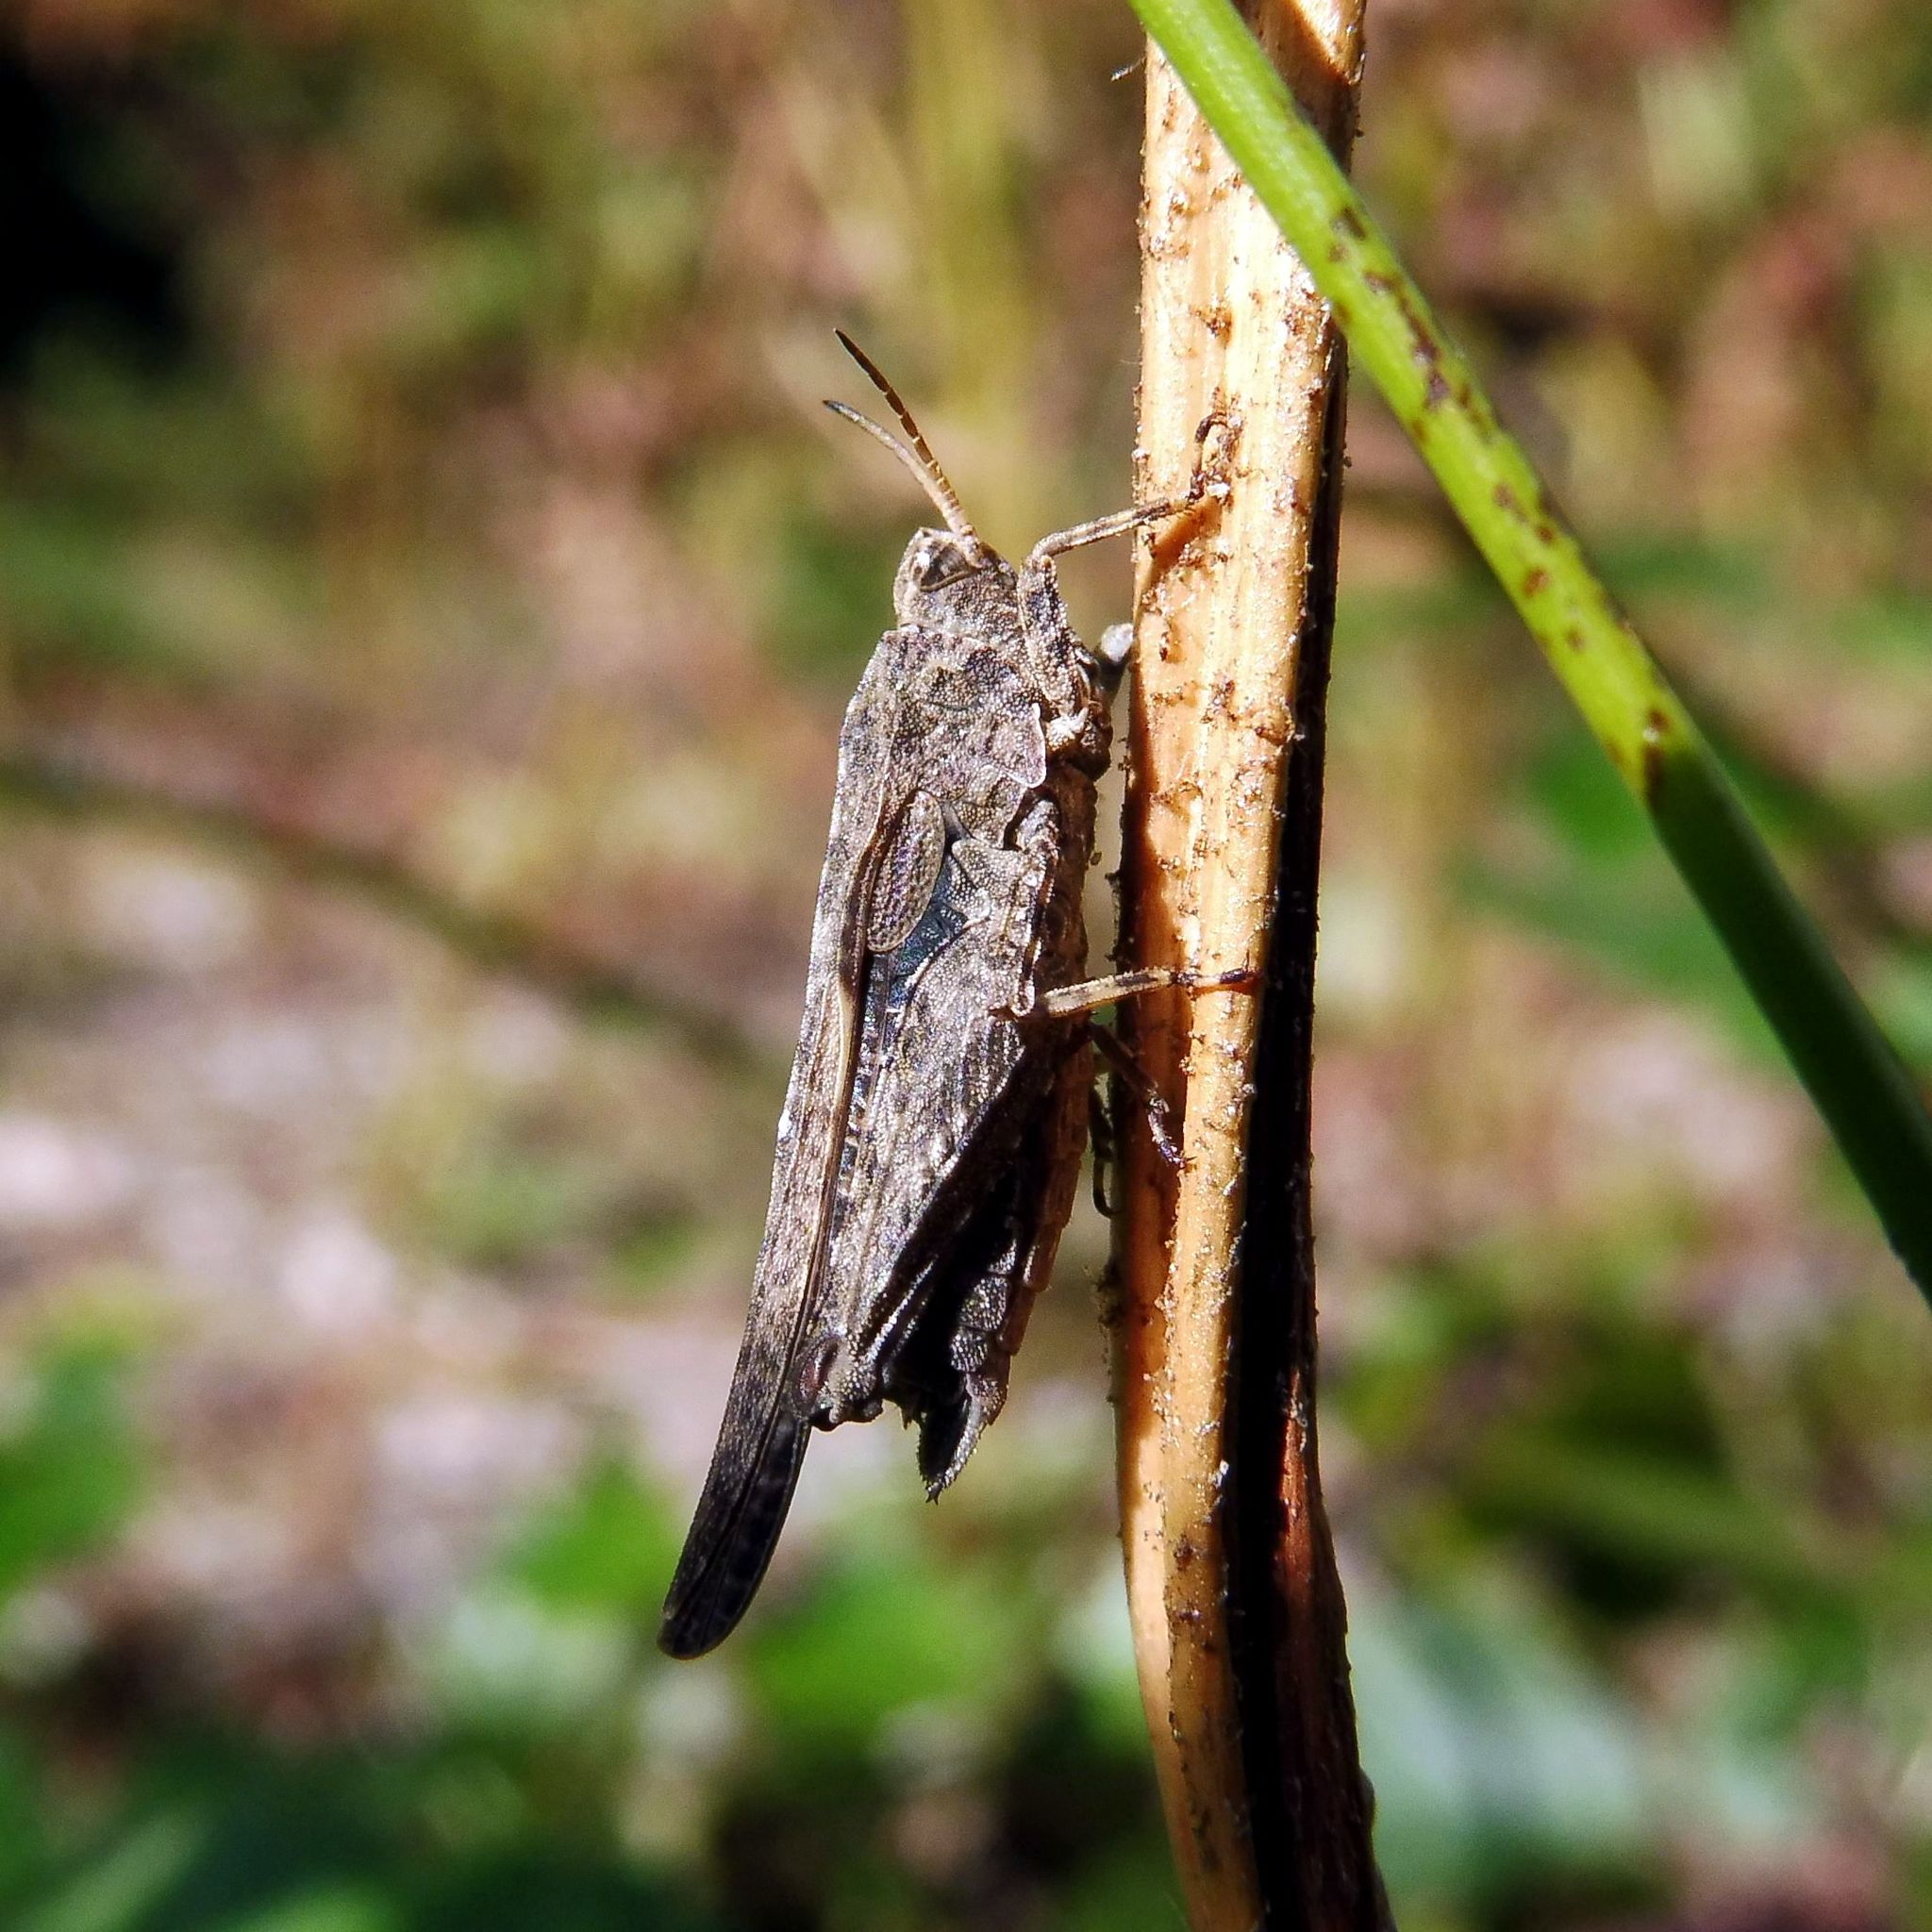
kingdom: Animalia
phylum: Arthropoda
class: Insecta
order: Orthoptera
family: Tetrigidae
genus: Tetrix
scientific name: Tetrix subulata
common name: Slender ground-hopper
